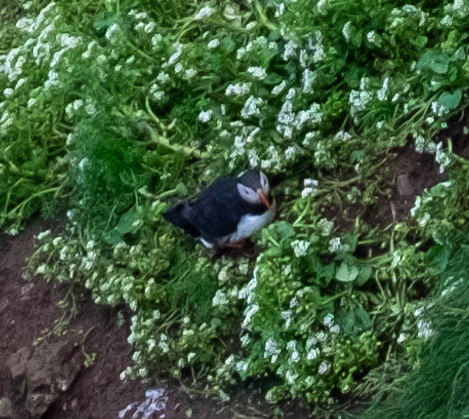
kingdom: Animalia
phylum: Chordata
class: Aves
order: Charadriiformes
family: Alcidae
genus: Fratercula
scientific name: Fratercula arctica
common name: Atlantic puffin
